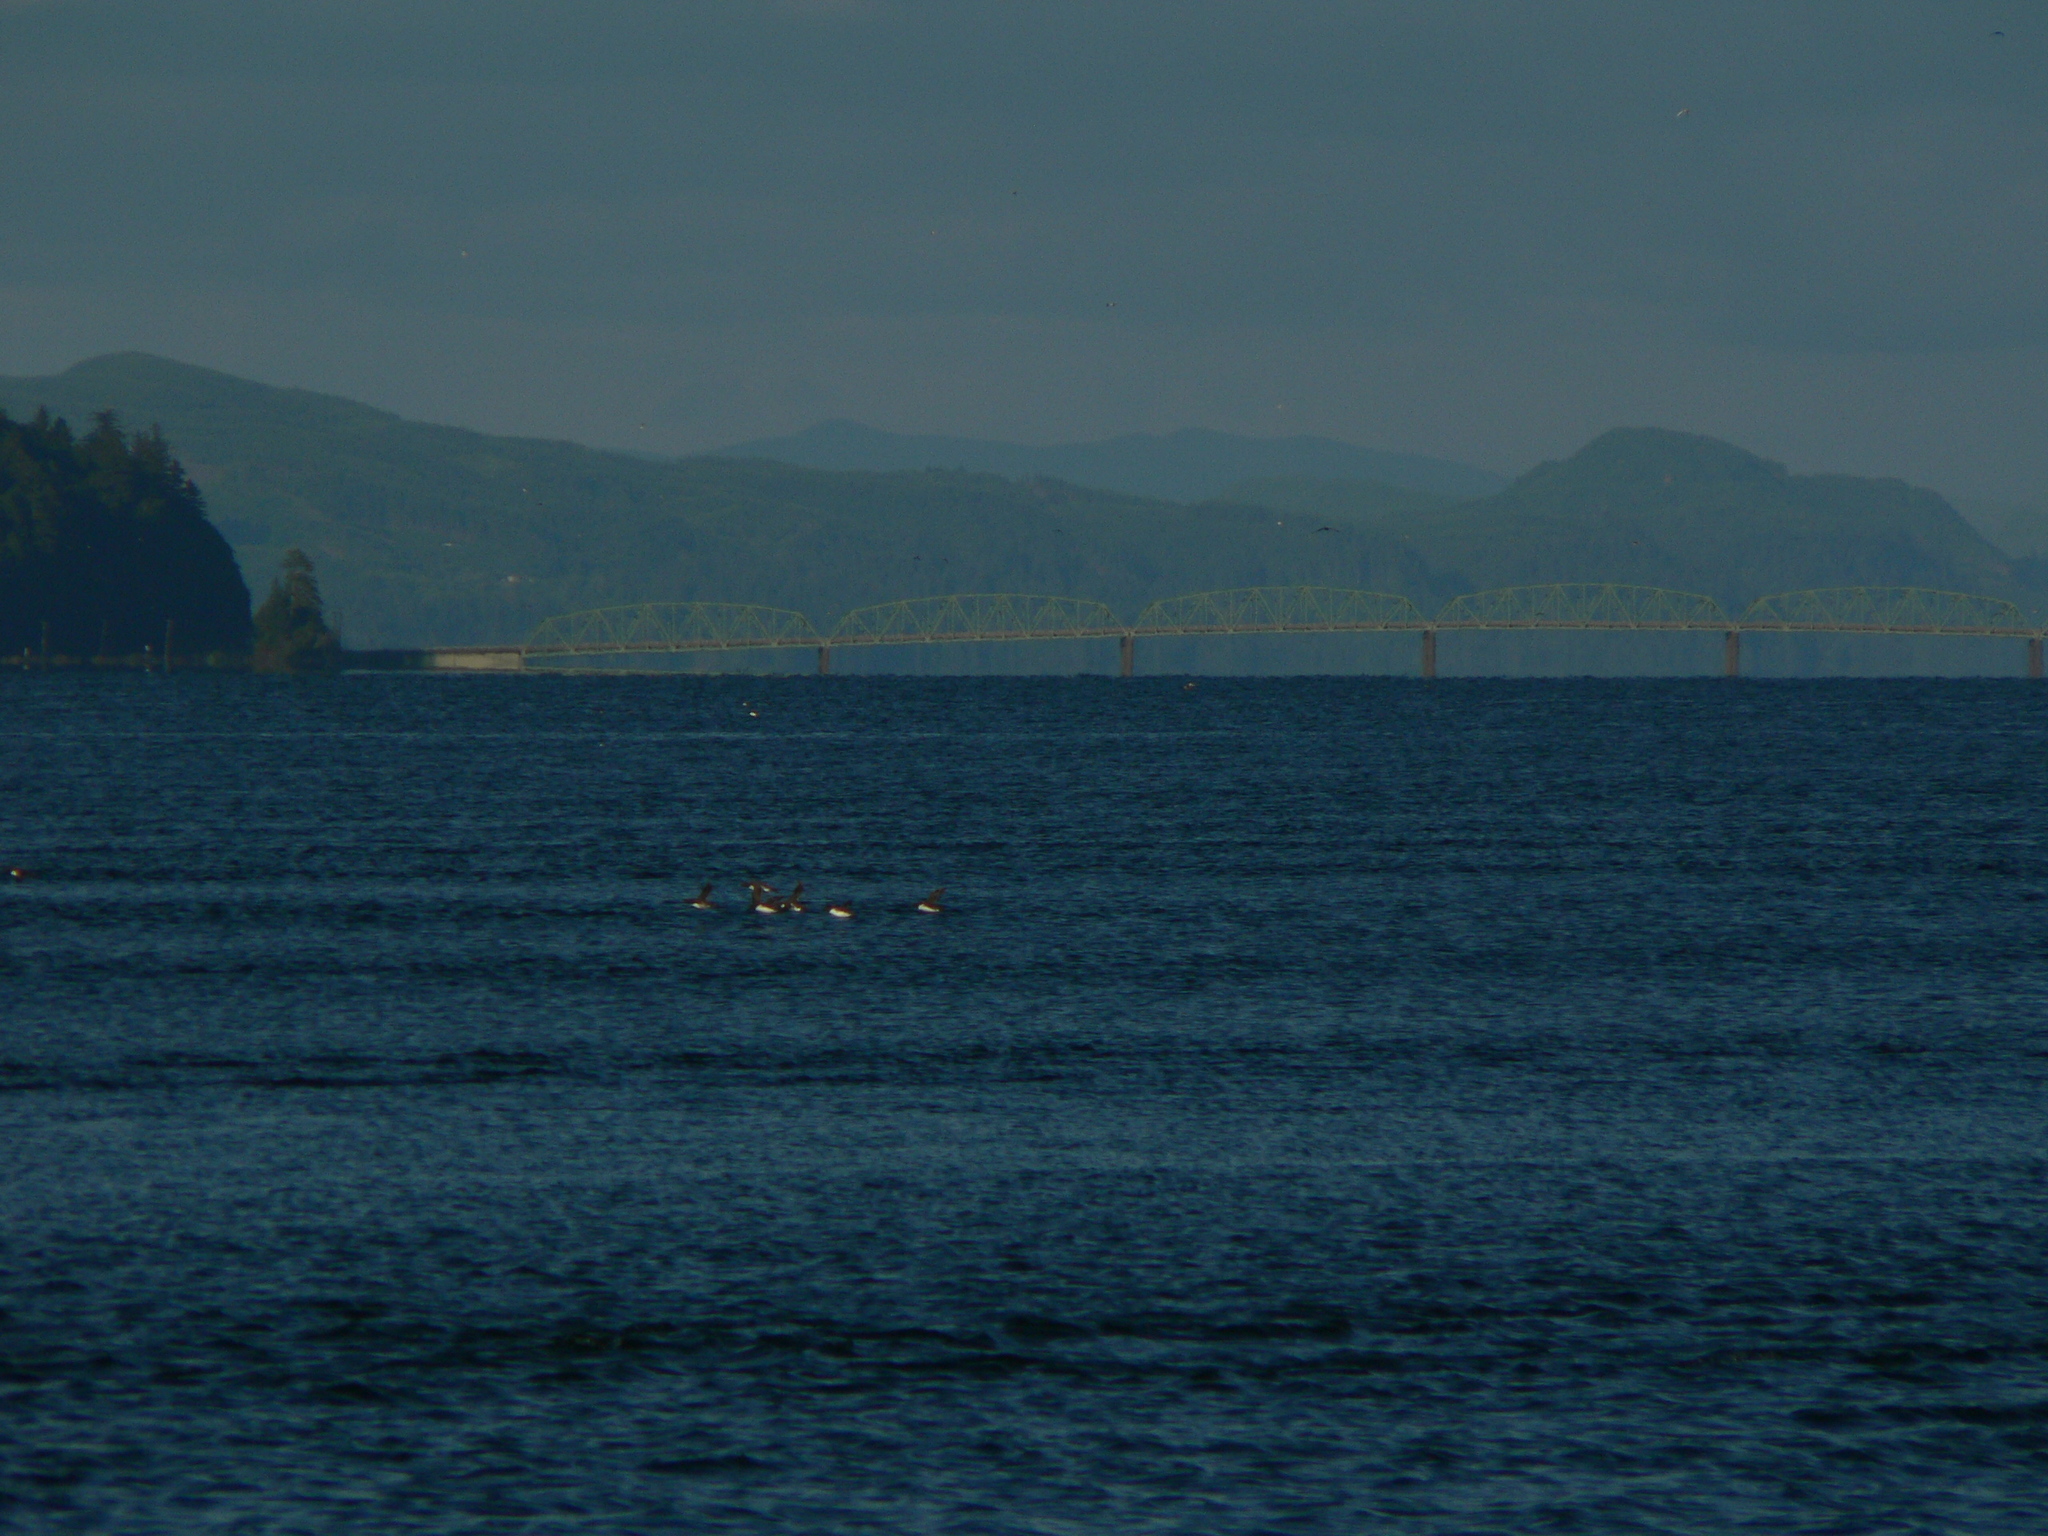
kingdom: Animalia
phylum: Chordata
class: Aves
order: Charadriiformes
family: Alcidae
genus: Uria
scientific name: Uria aalge
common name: Common murre
